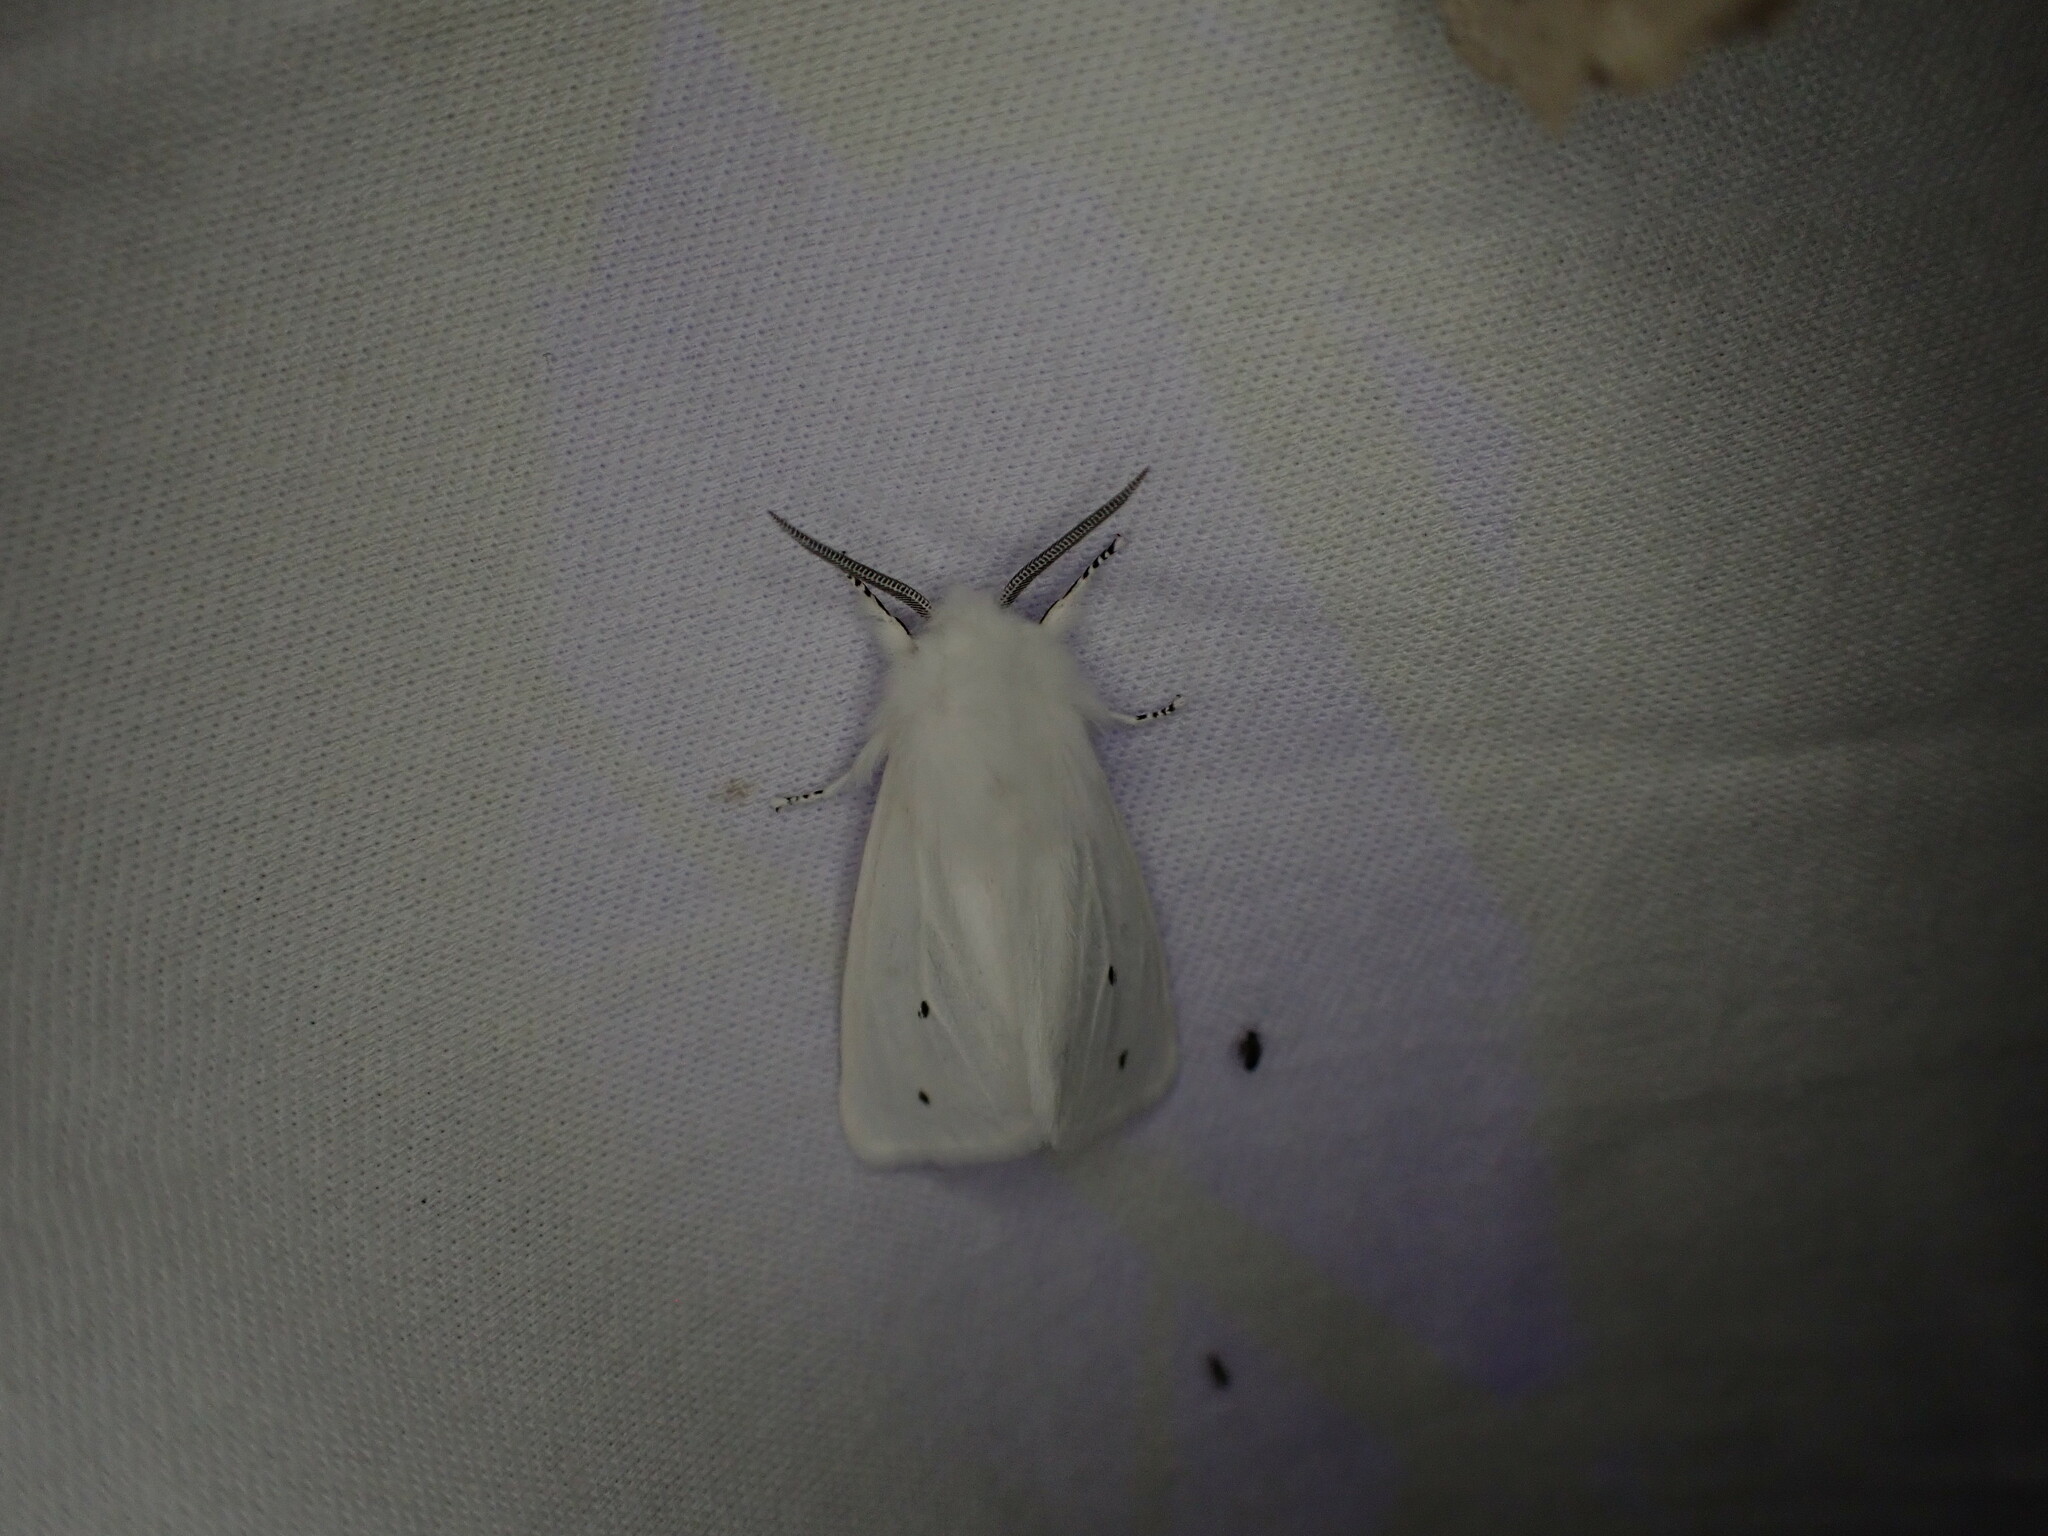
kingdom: Animalia
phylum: Arthropoda
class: Insecta
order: Lepidoptera
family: Erebidae
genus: Spilosoma
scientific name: Spilosoma virginica
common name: Virginia tiger moth
